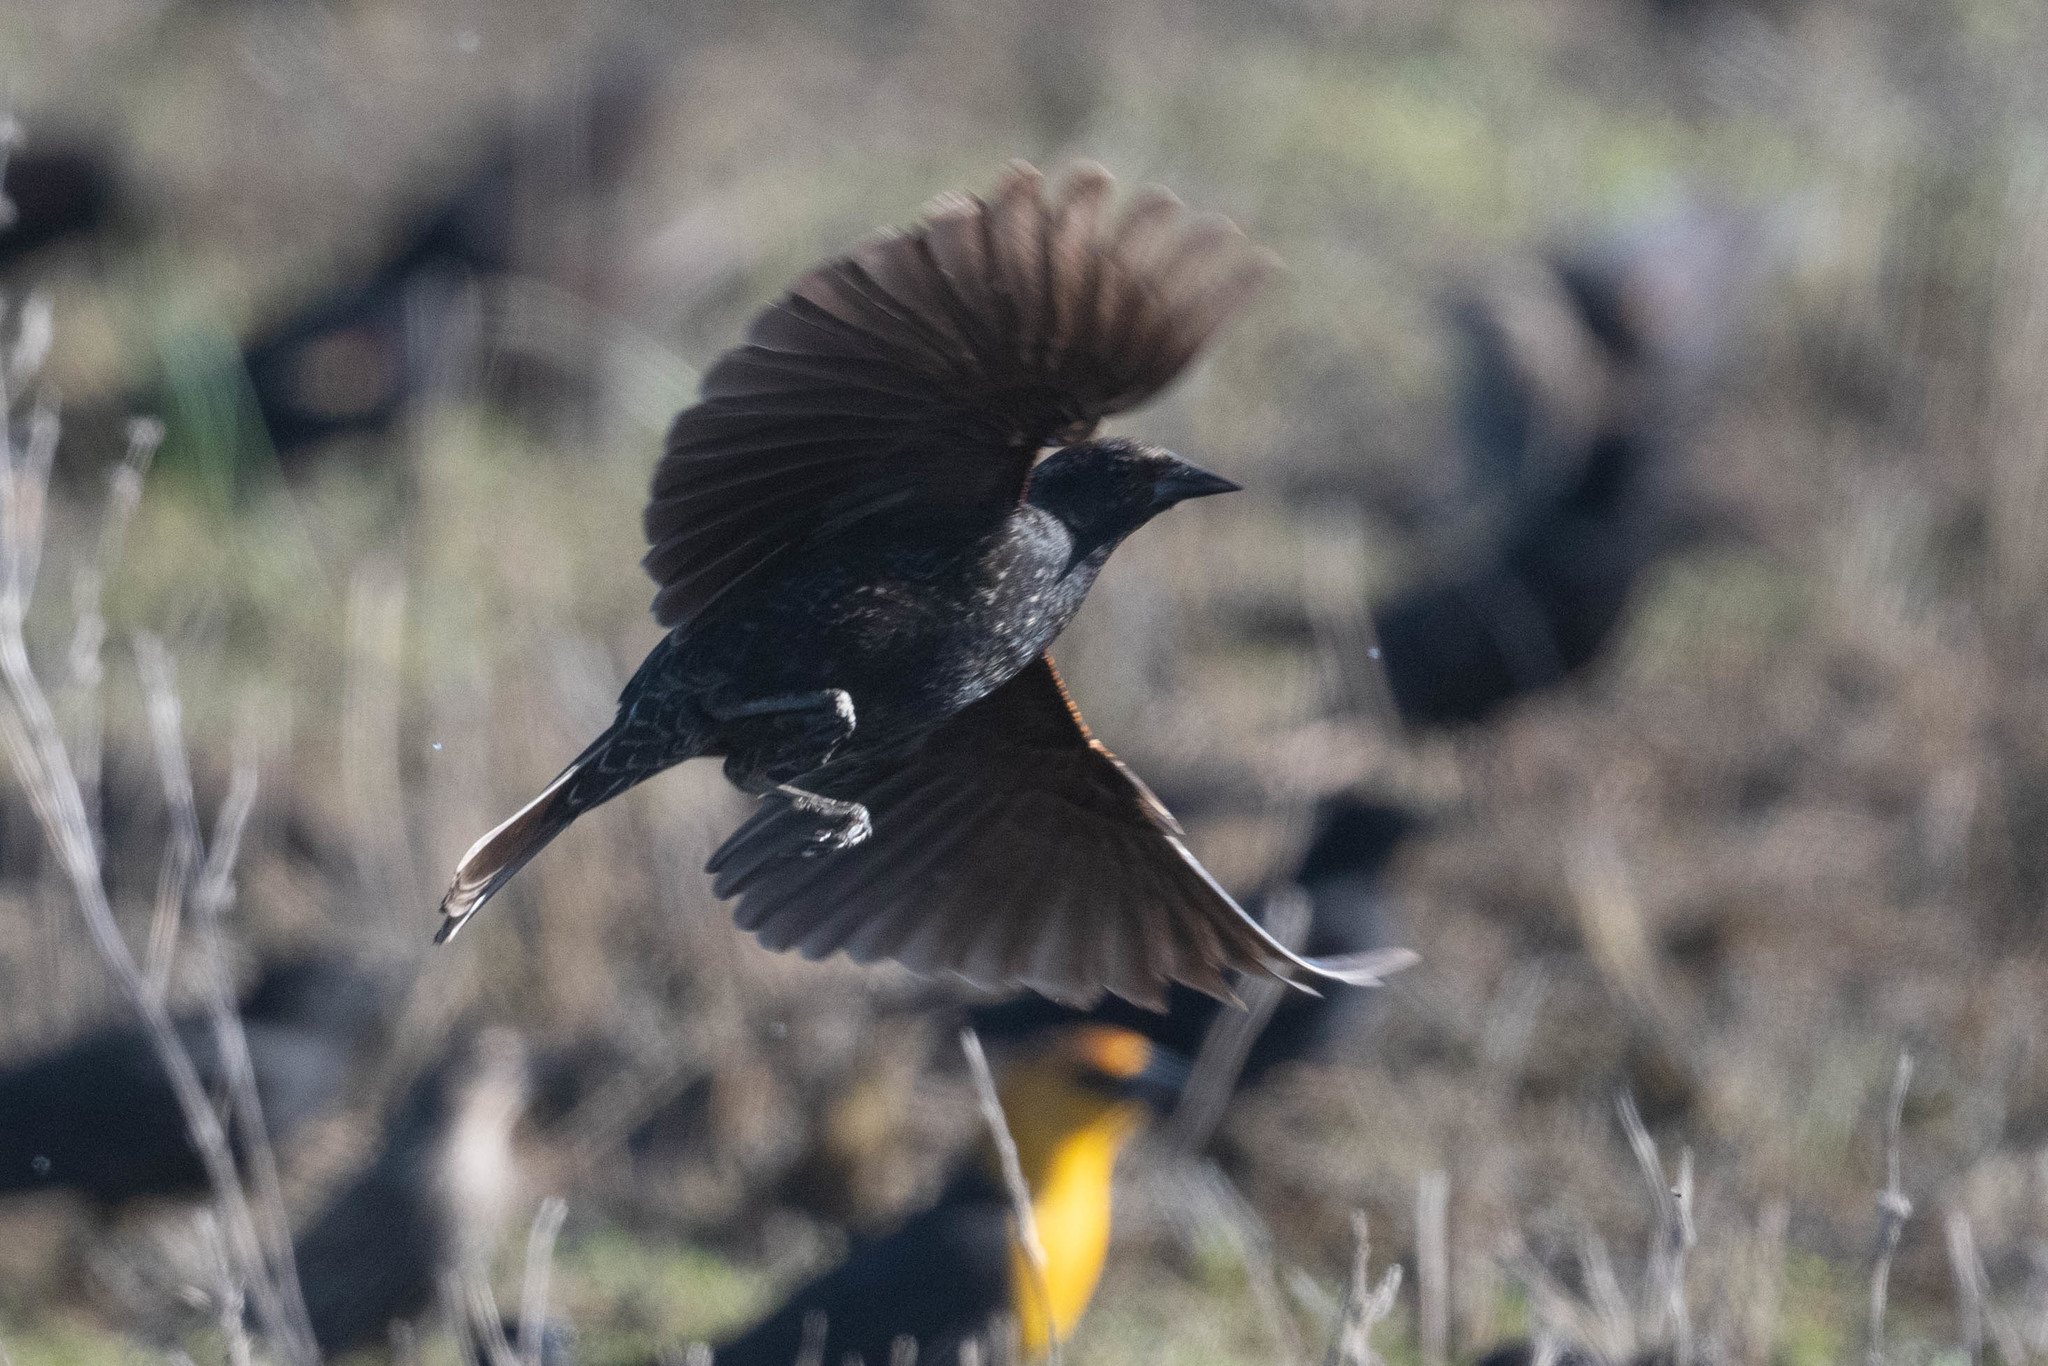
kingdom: Animalia
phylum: Chordata
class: Aves
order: Passeriformes
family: Icteridae
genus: Xanthocephalus
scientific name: Xanthocephalus xanthocephalus
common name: Yellow-headed blackbird
